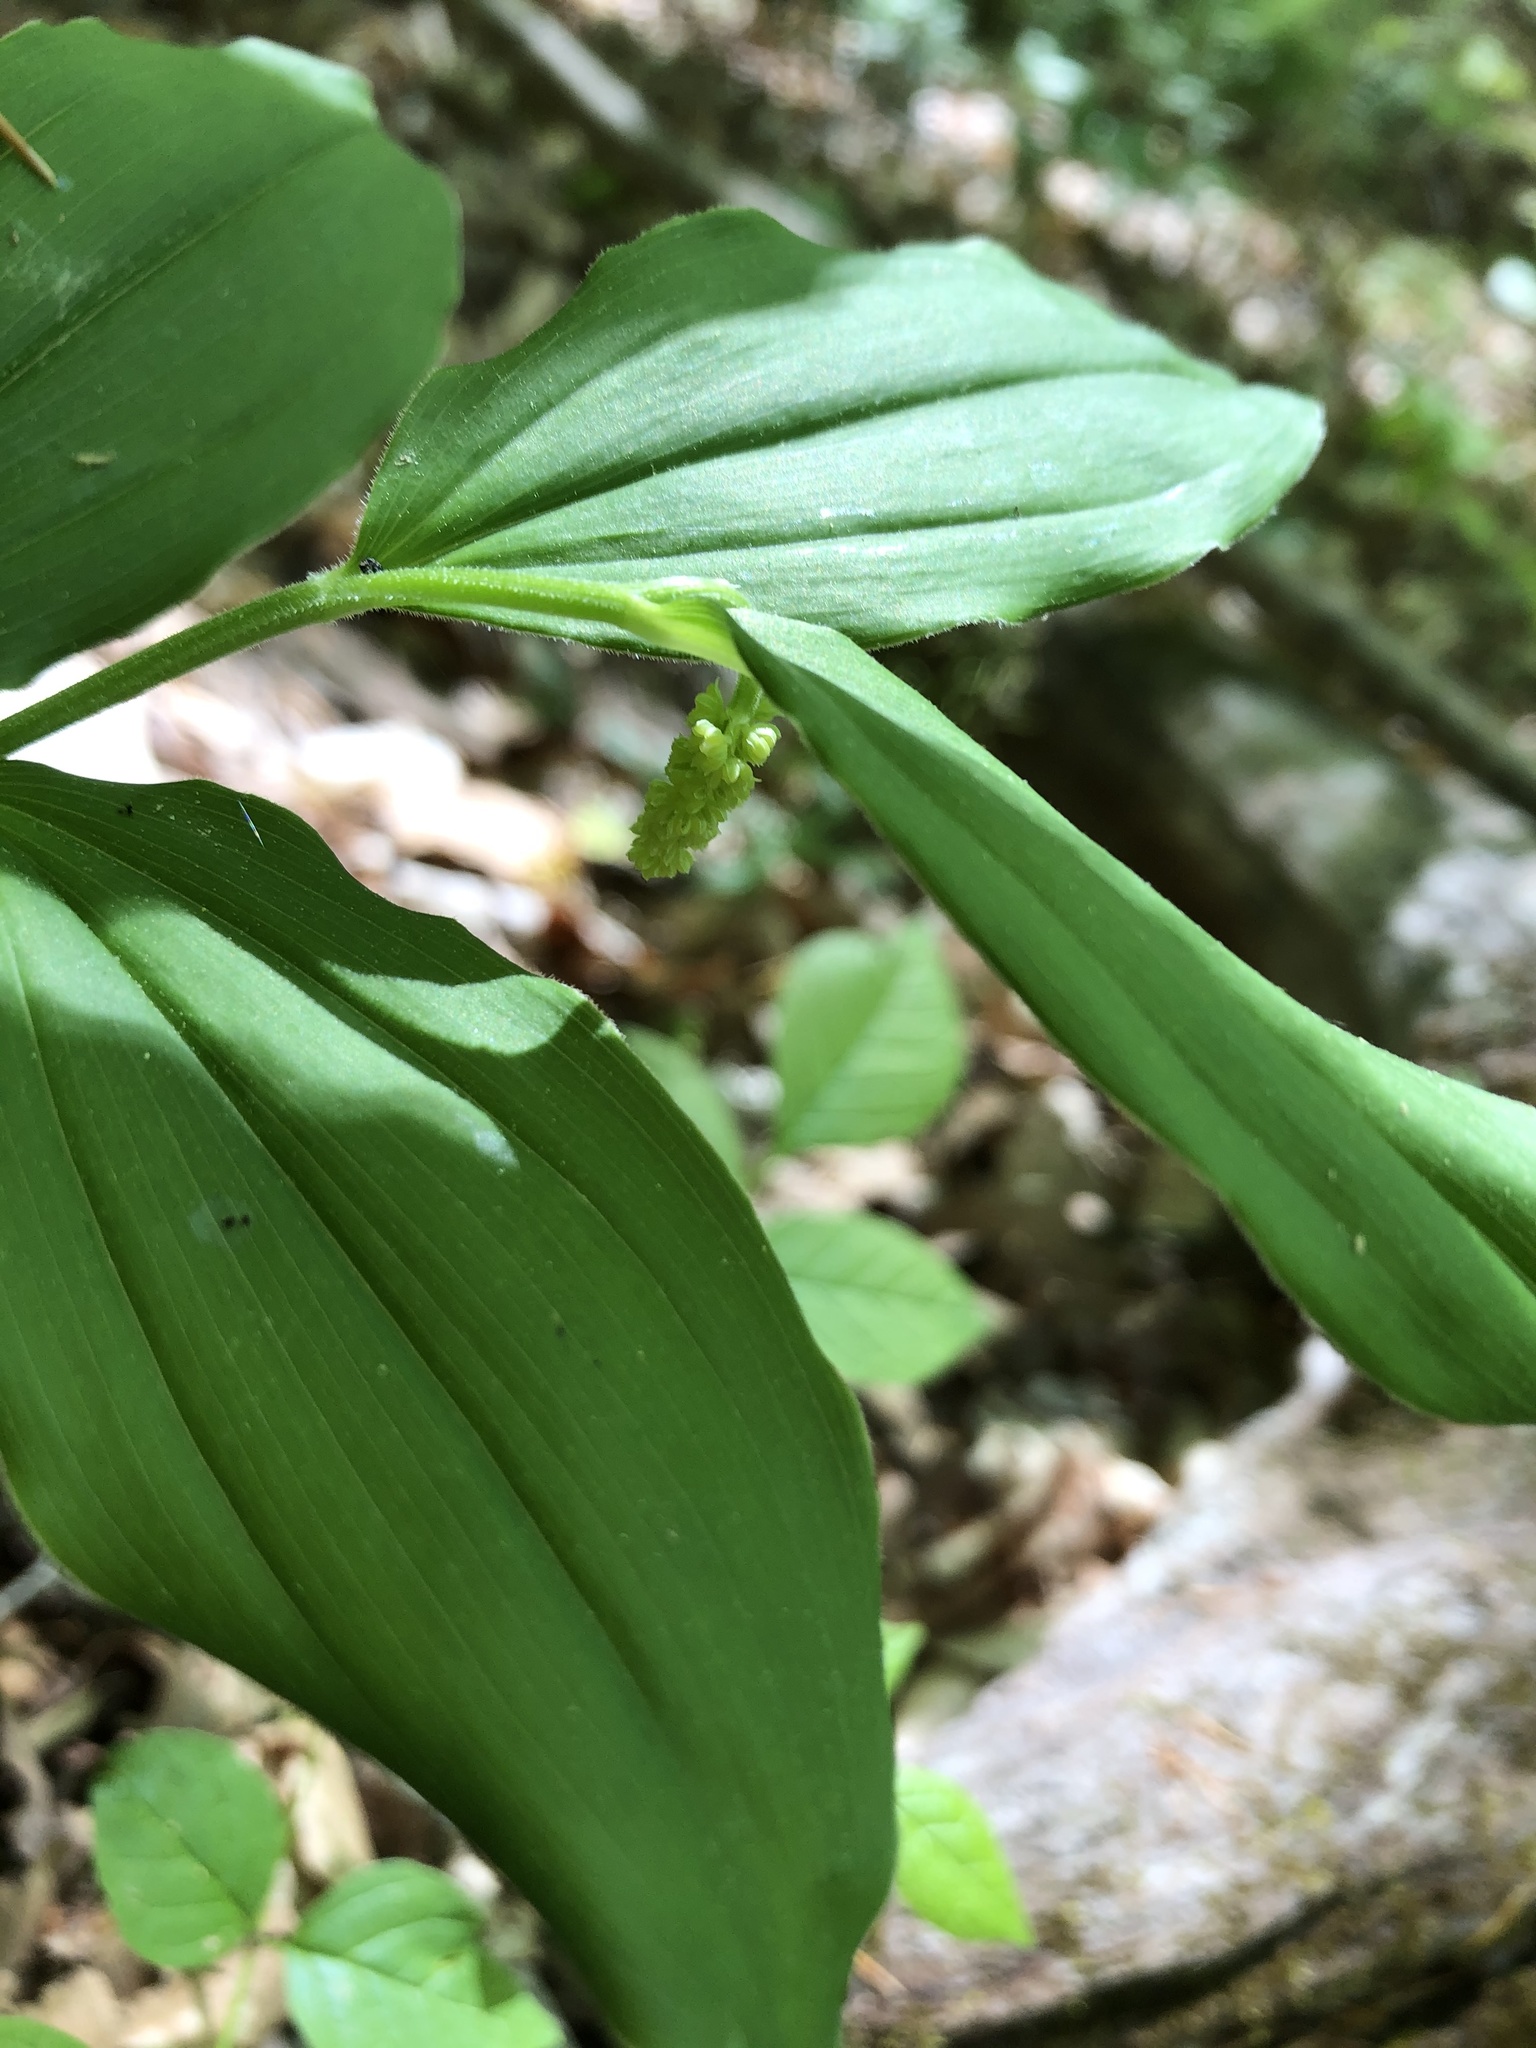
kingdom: Plantae
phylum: Tracheophyta
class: Liliopsida
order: Asparagales
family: Asparagaceae
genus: Maianthemum
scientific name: Maianthemum racemosum
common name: False spikenard
